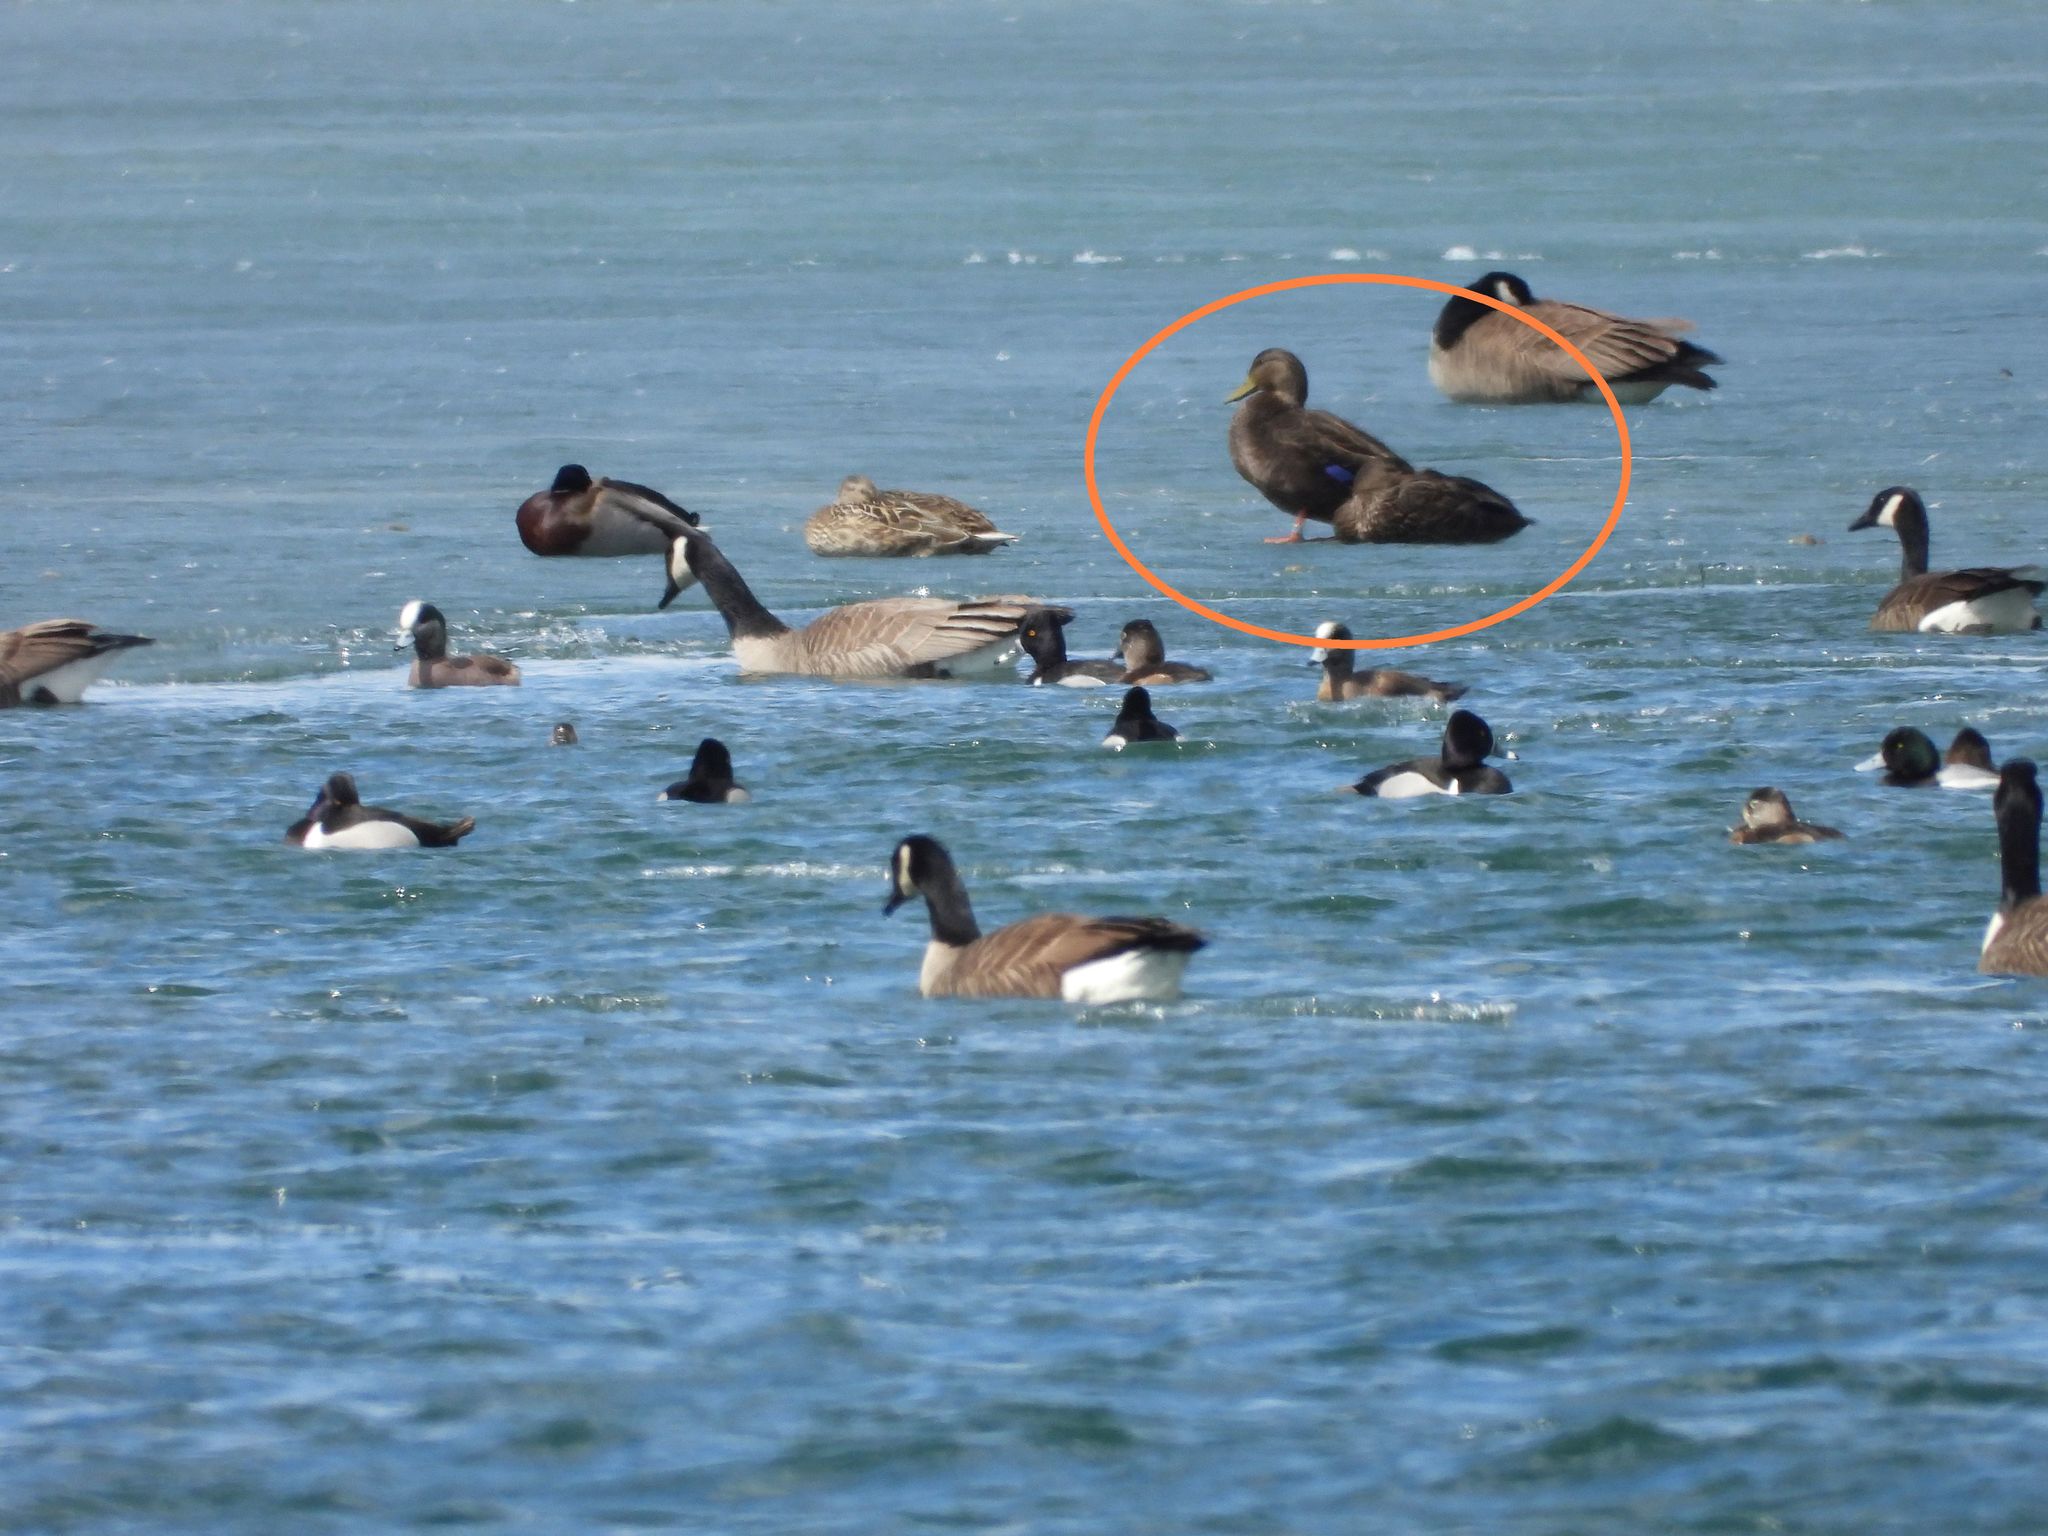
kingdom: Animalia
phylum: Chordata
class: Aves
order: Anseriformes
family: Anatidae
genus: Anas
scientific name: Anas rubripes
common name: American black duck
